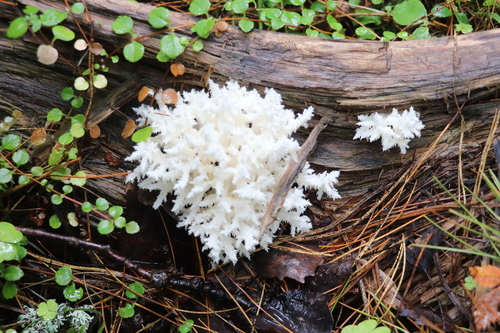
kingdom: Fungi
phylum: Basidiomycota
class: Agaricomycetes
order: Russulales
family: Hericiaceae
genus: Hericium
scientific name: Hericium coralloides
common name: Coral tooth
